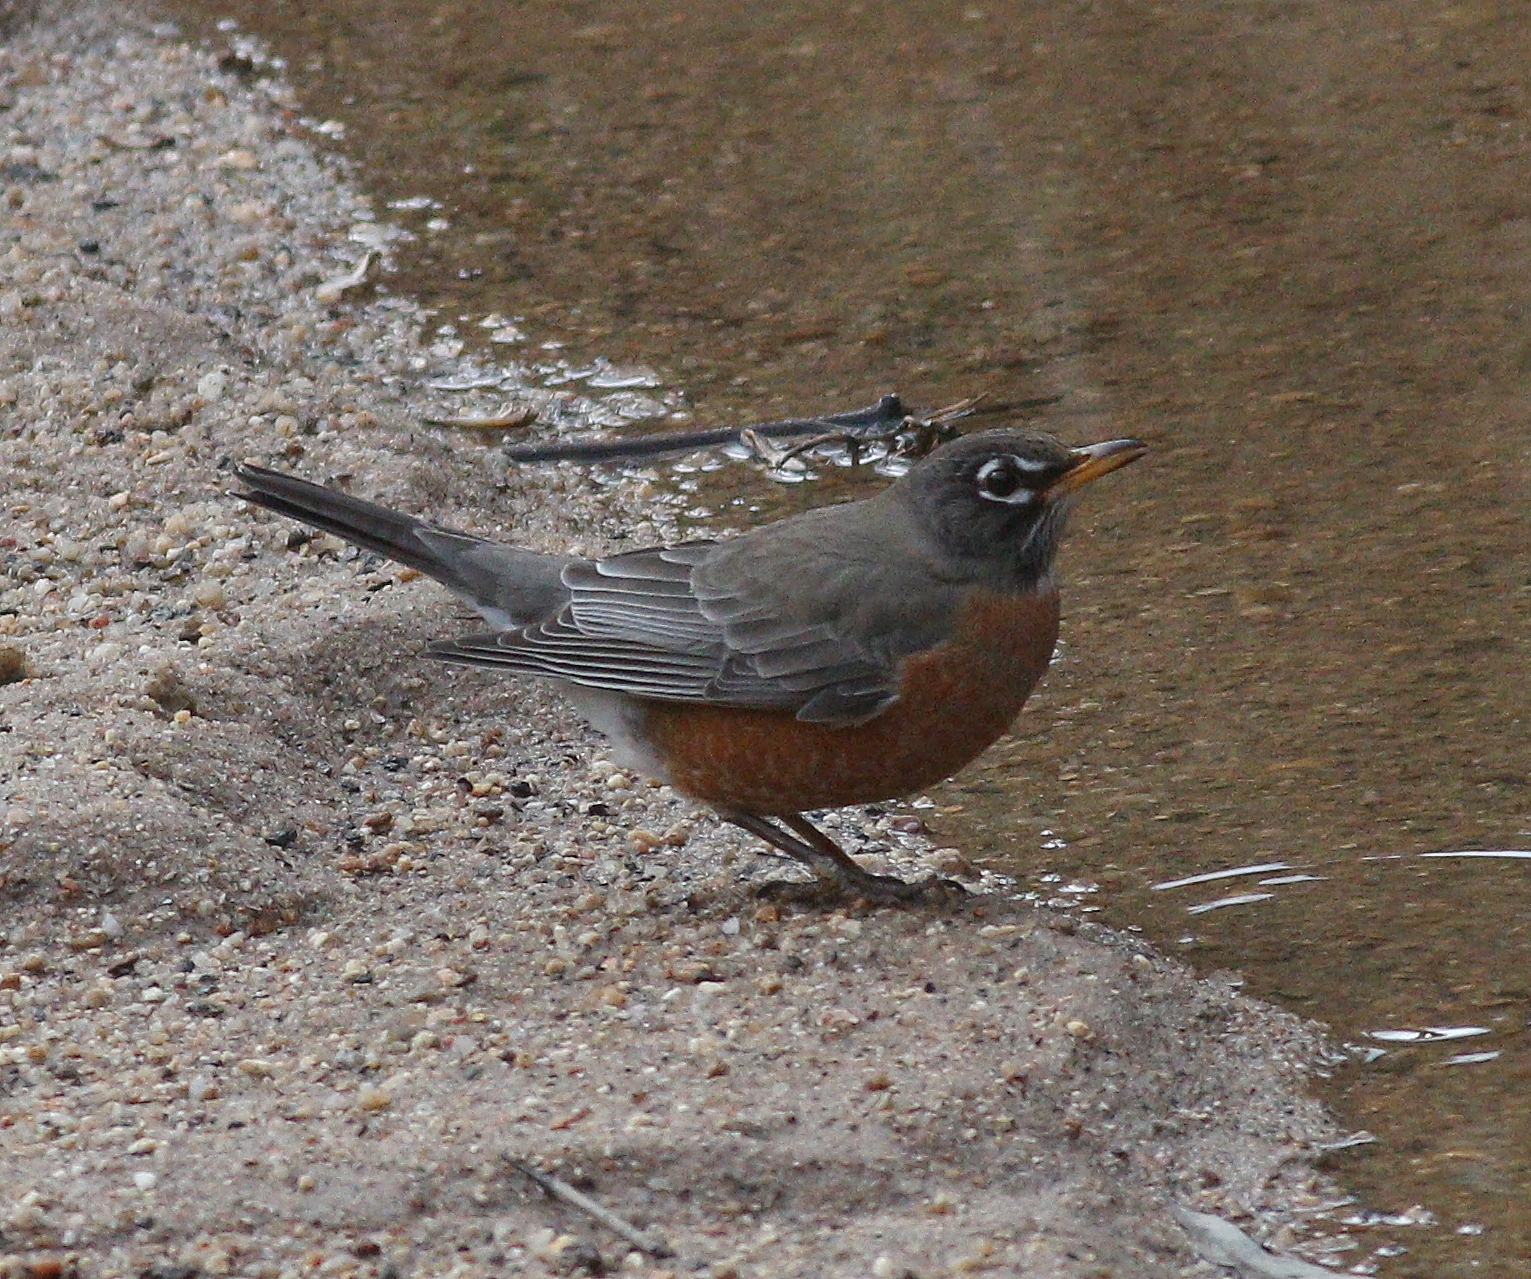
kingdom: Animalia
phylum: Chordata
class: Aves
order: Passeriformes
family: Turdidae
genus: Turdus
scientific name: Turdus migratorius
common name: American robin
